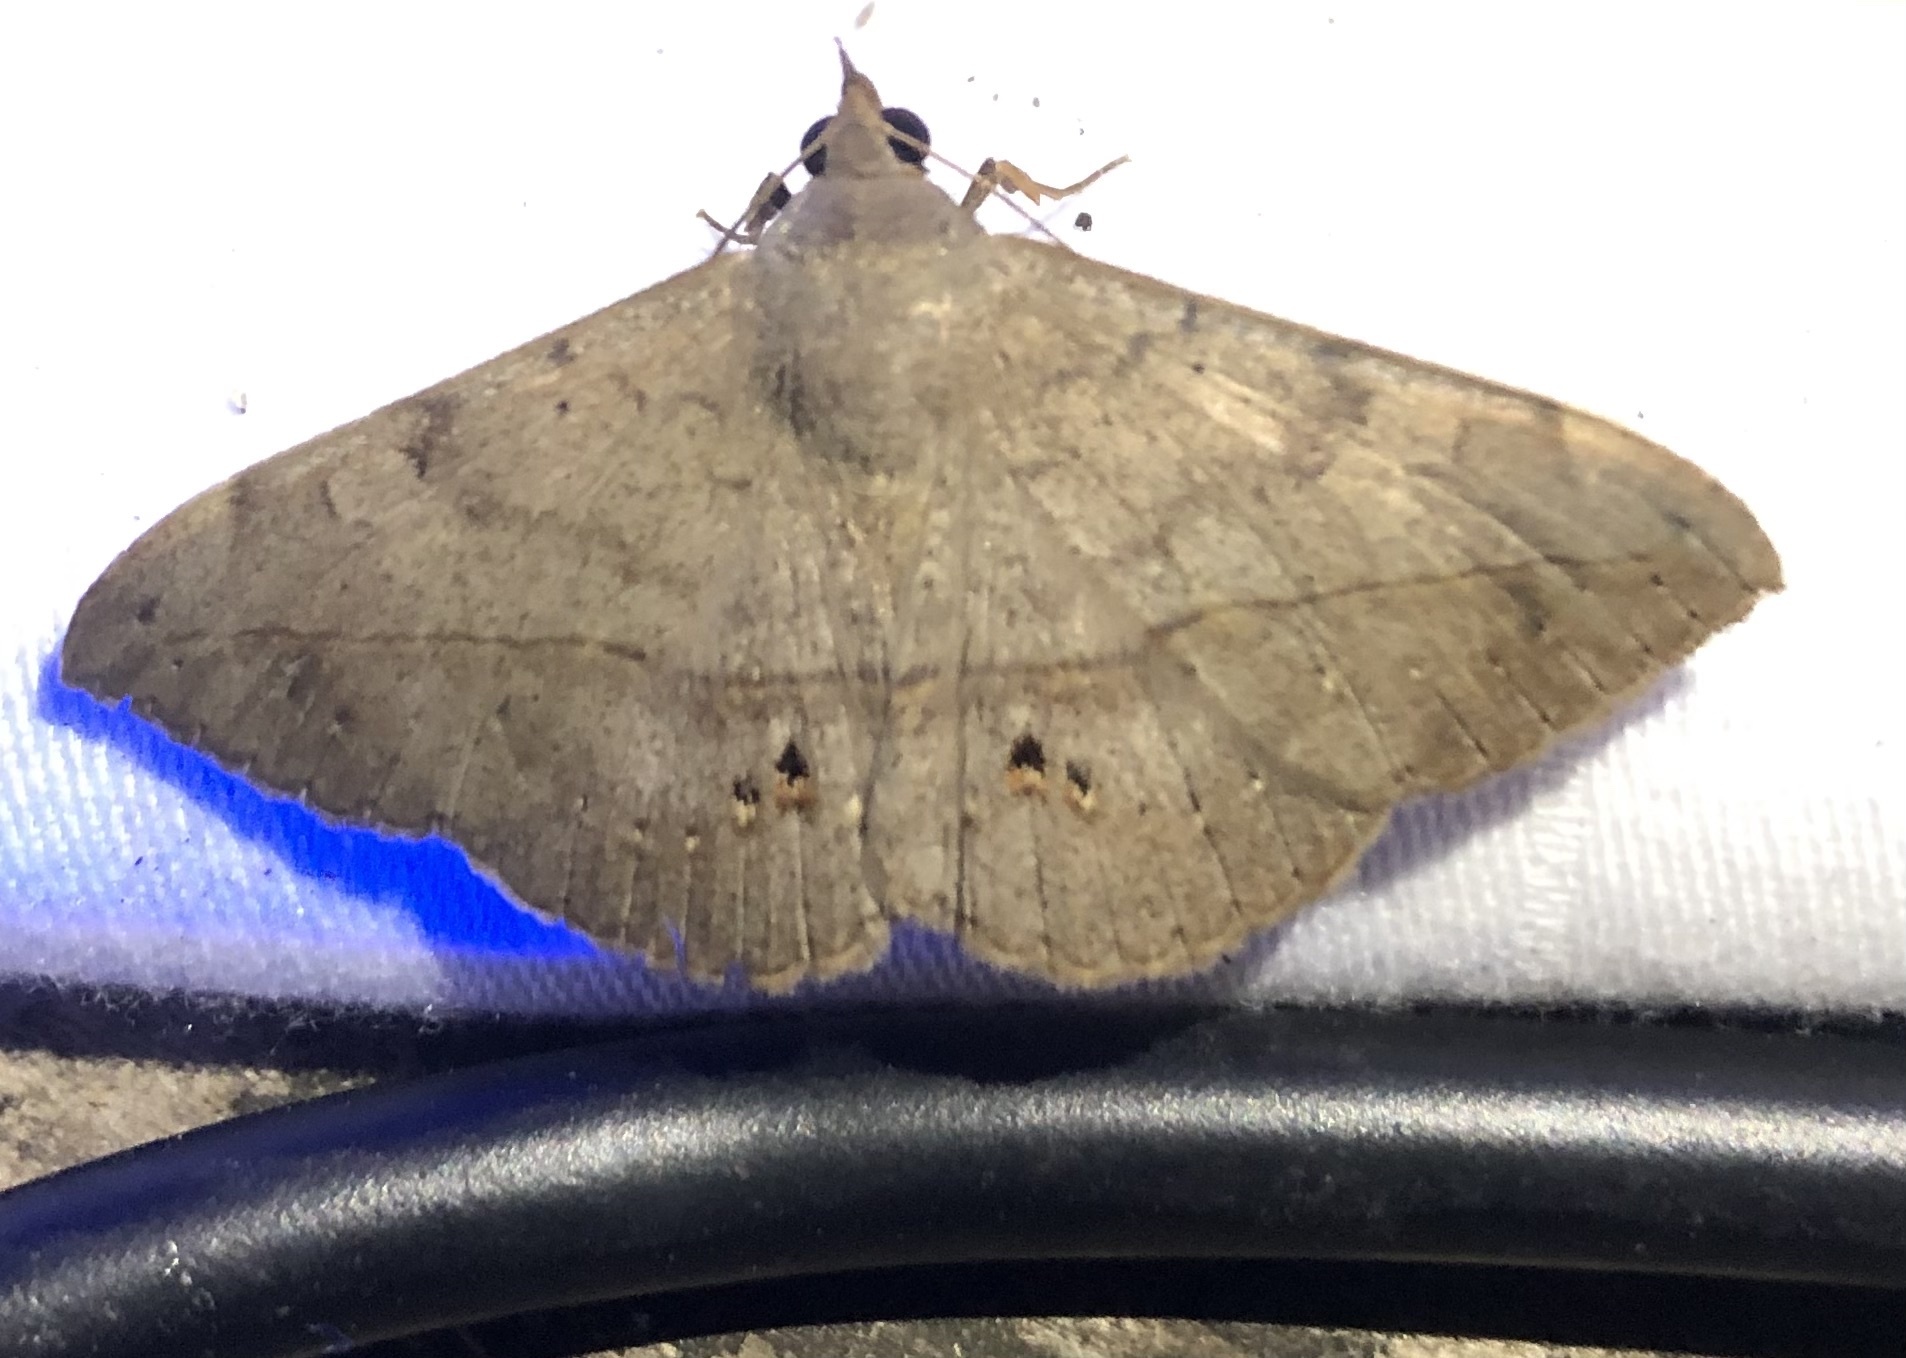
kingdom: Animalia
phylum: Arthropoda
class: Insecta
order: Lepidoptera
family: Erebidae
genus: Anticarsia
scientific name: Anticarsia gemmatalis
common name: Cutworm moth
